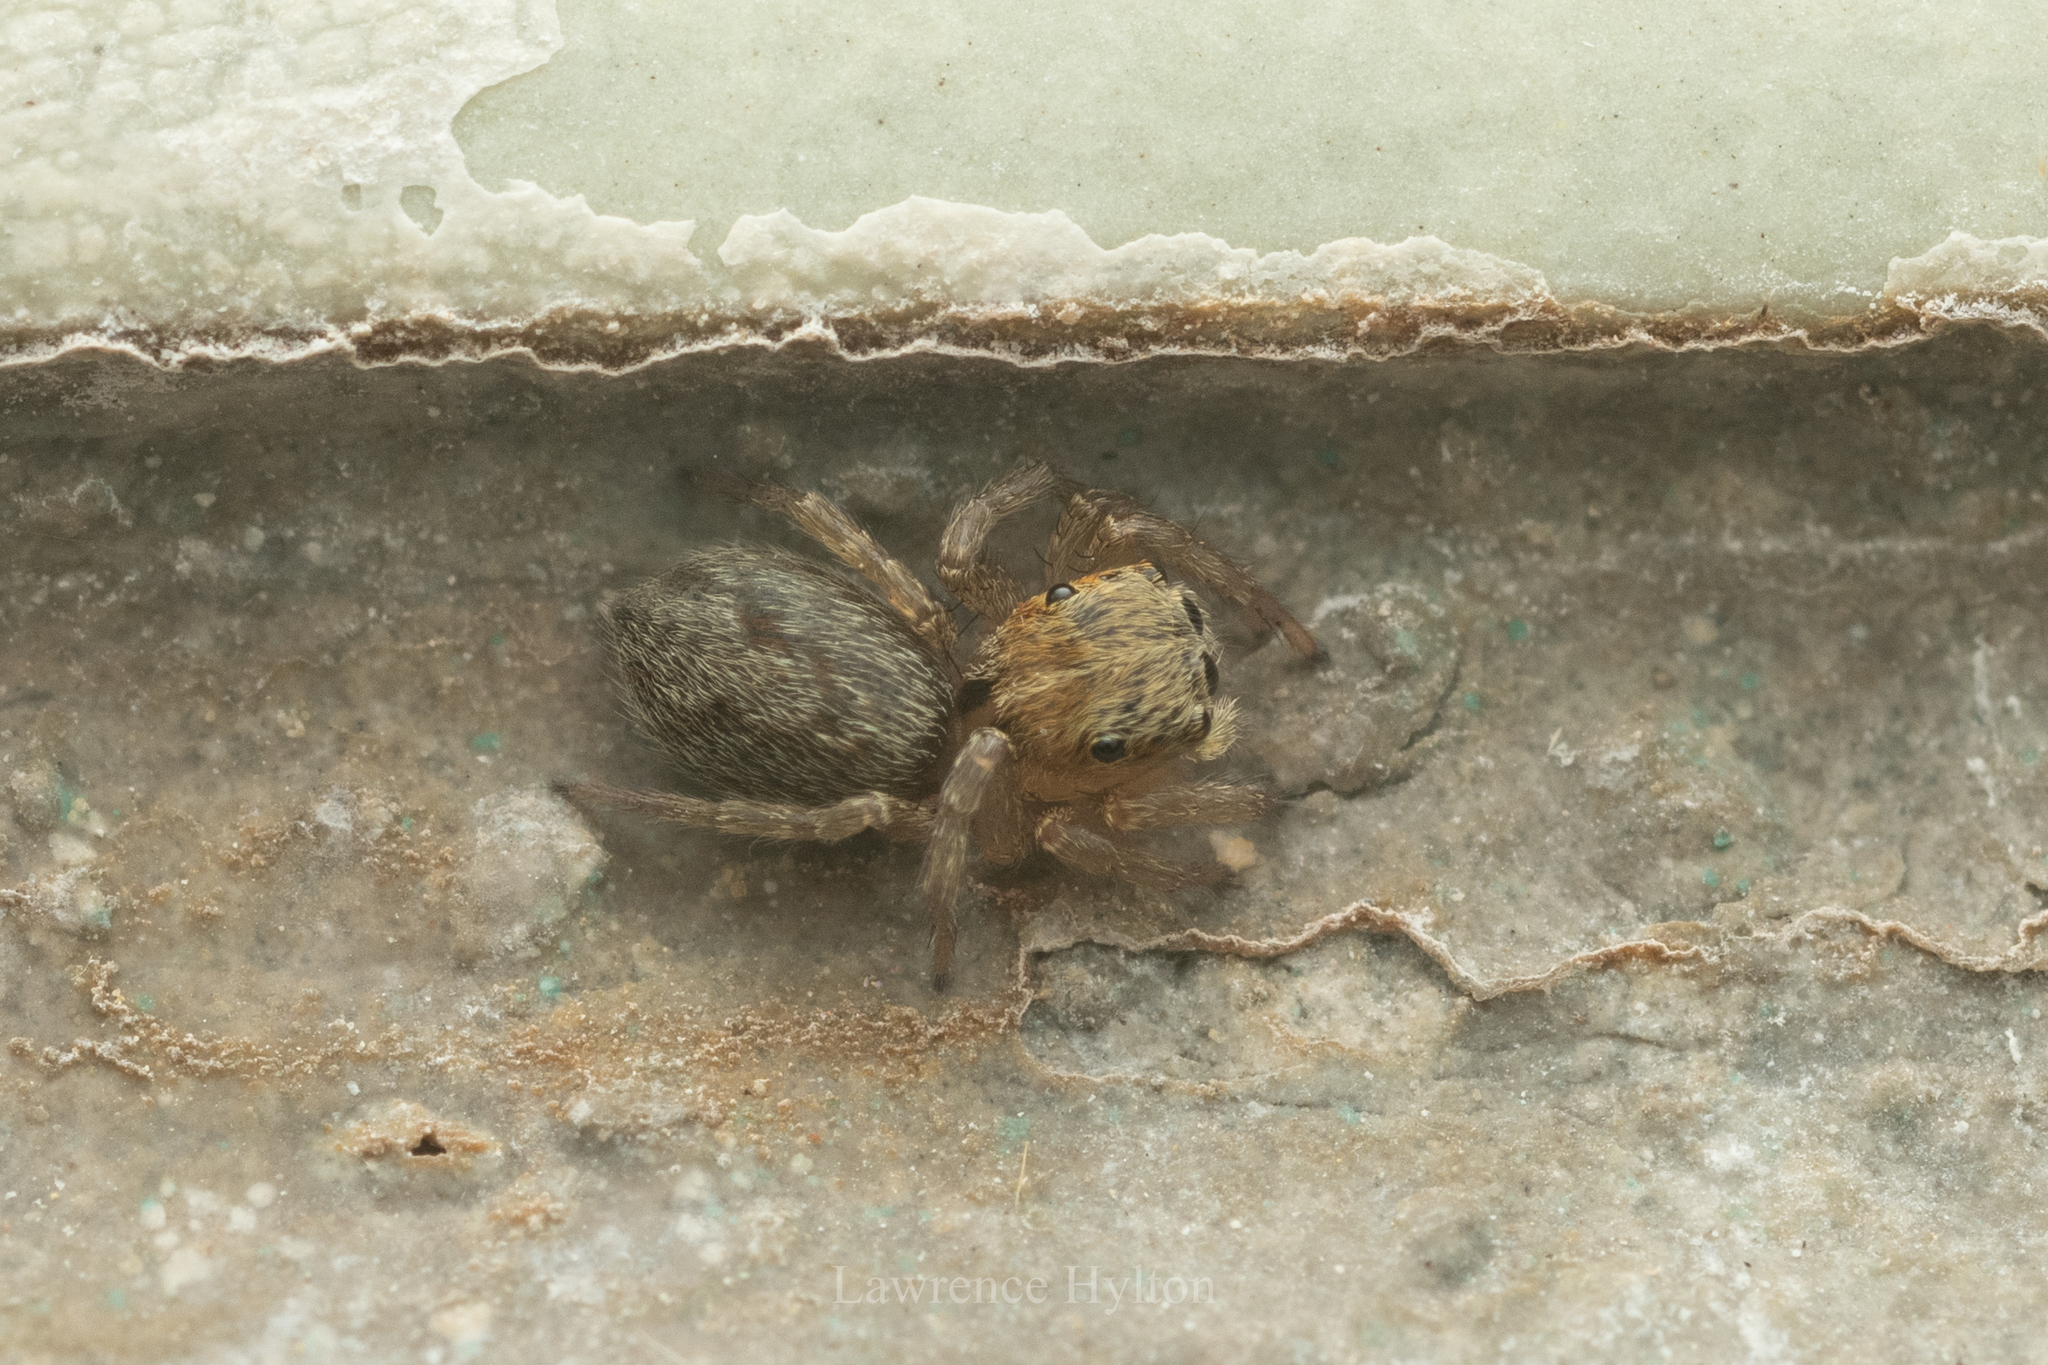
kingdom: Animalia
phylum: Arthropoda
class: Arachnida
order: Araneae
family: Salticidae
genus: Hasarius
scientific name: Hasarius adansoni
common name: Jumping spider
